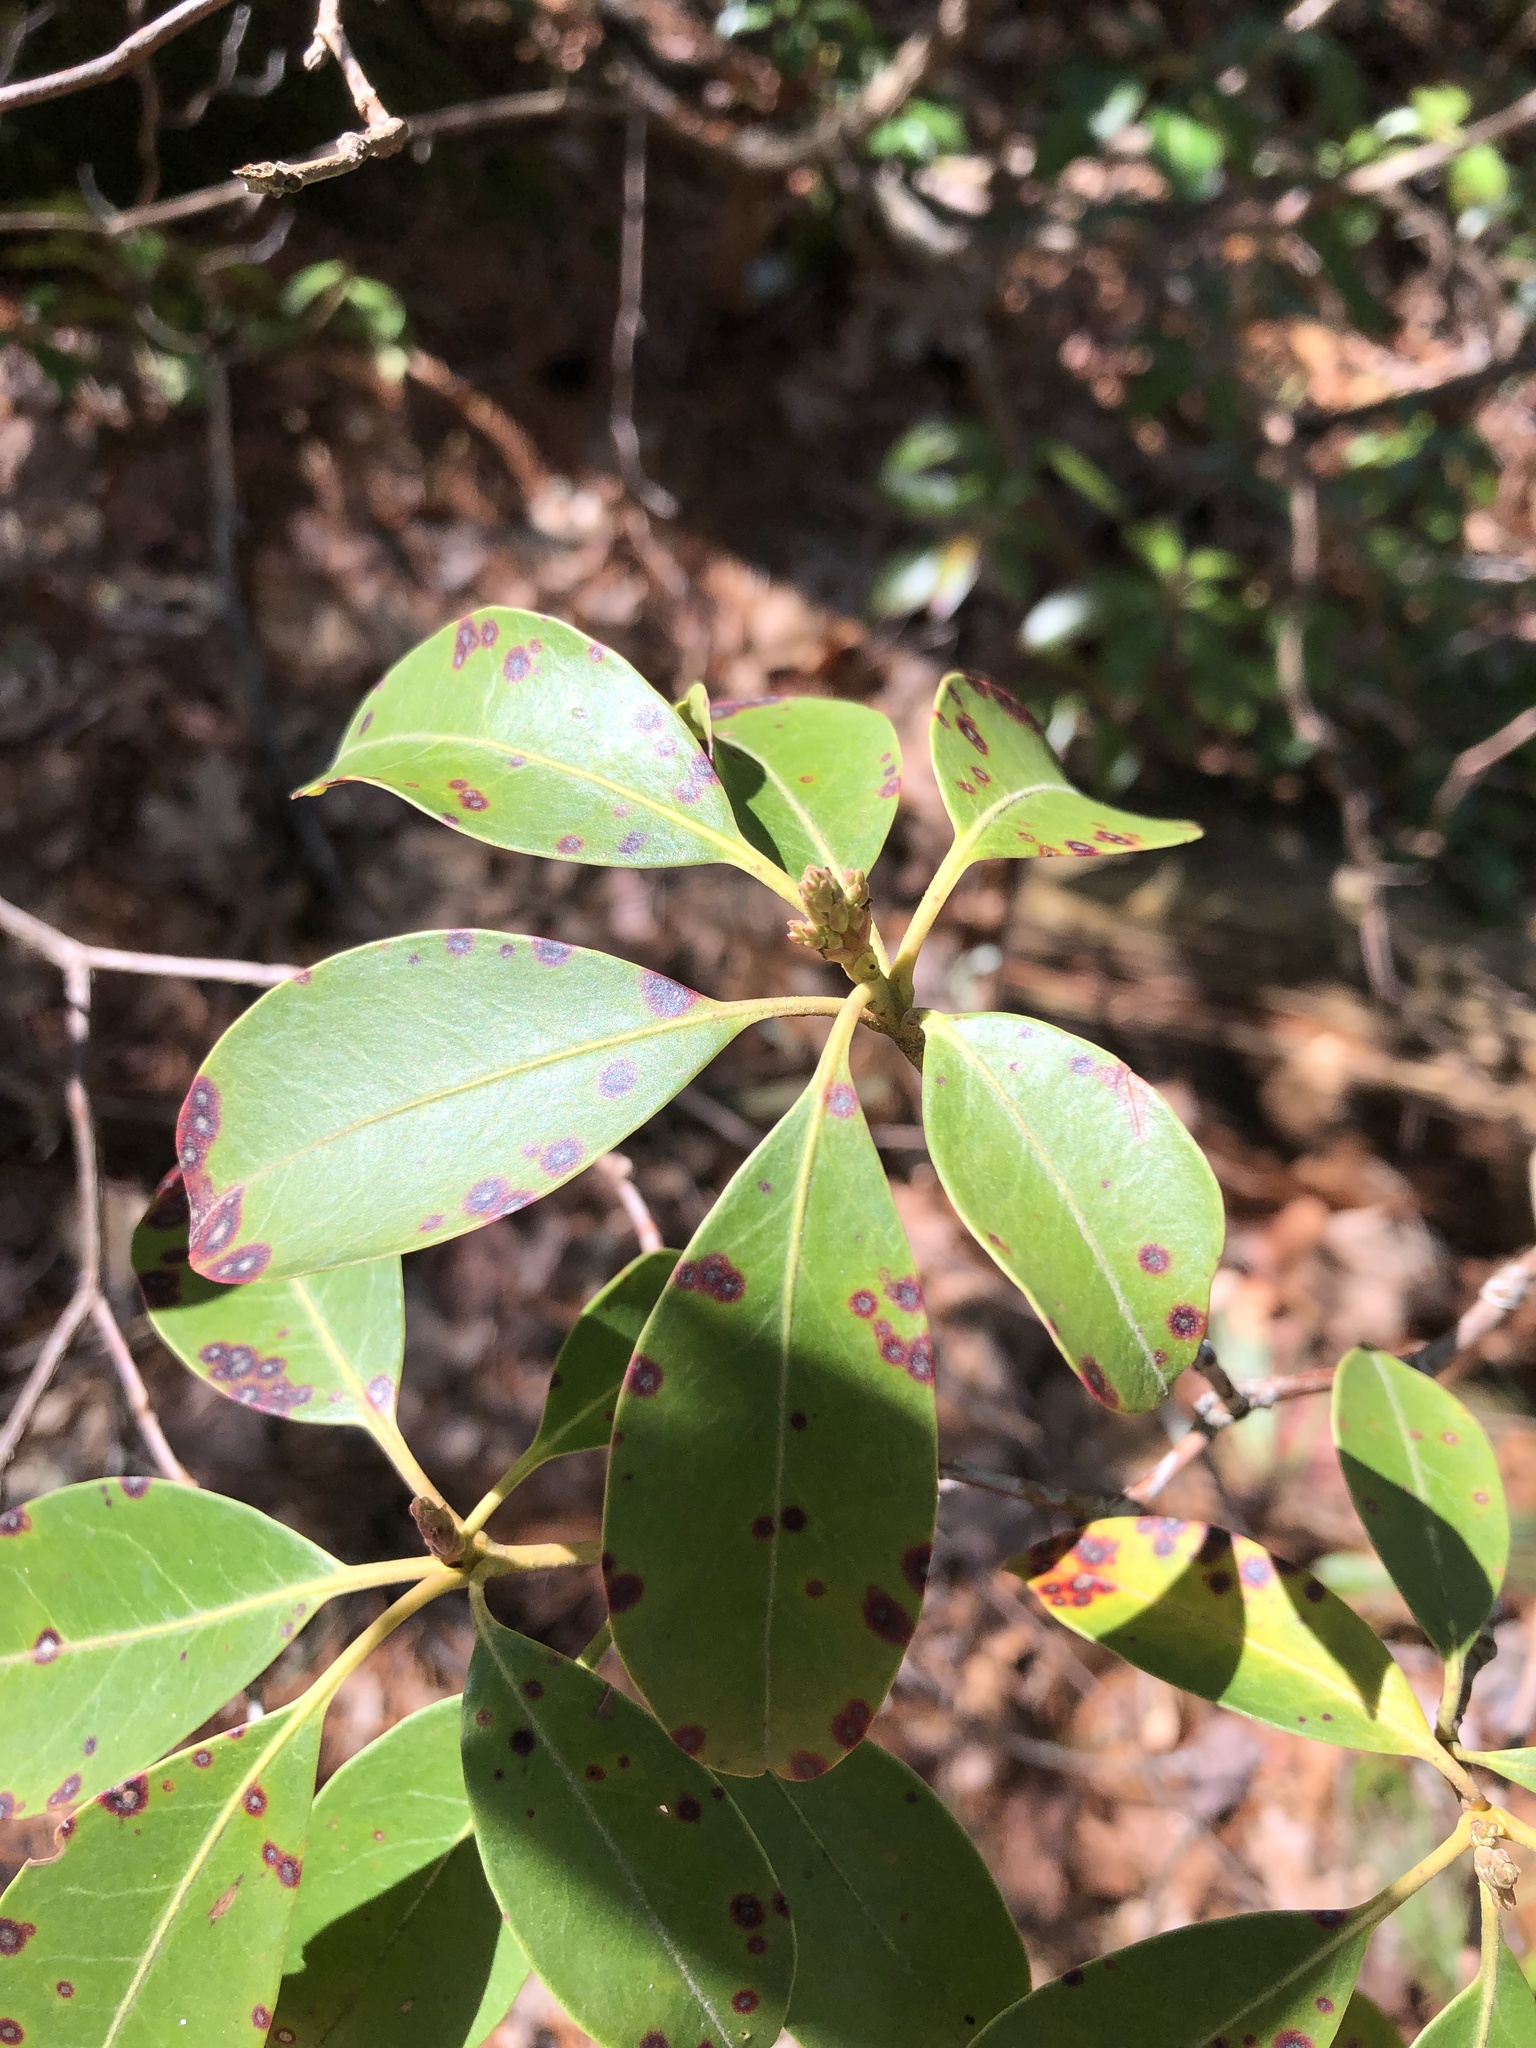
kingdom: Fungi
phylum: Ascomycota
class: Dothideomycetes
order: Mycosphaerellales
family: Mycosphaerellaceae
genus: Mycosphaerella
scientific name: Mycosphaerella colorata
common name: Mountain laurel leaf spot
